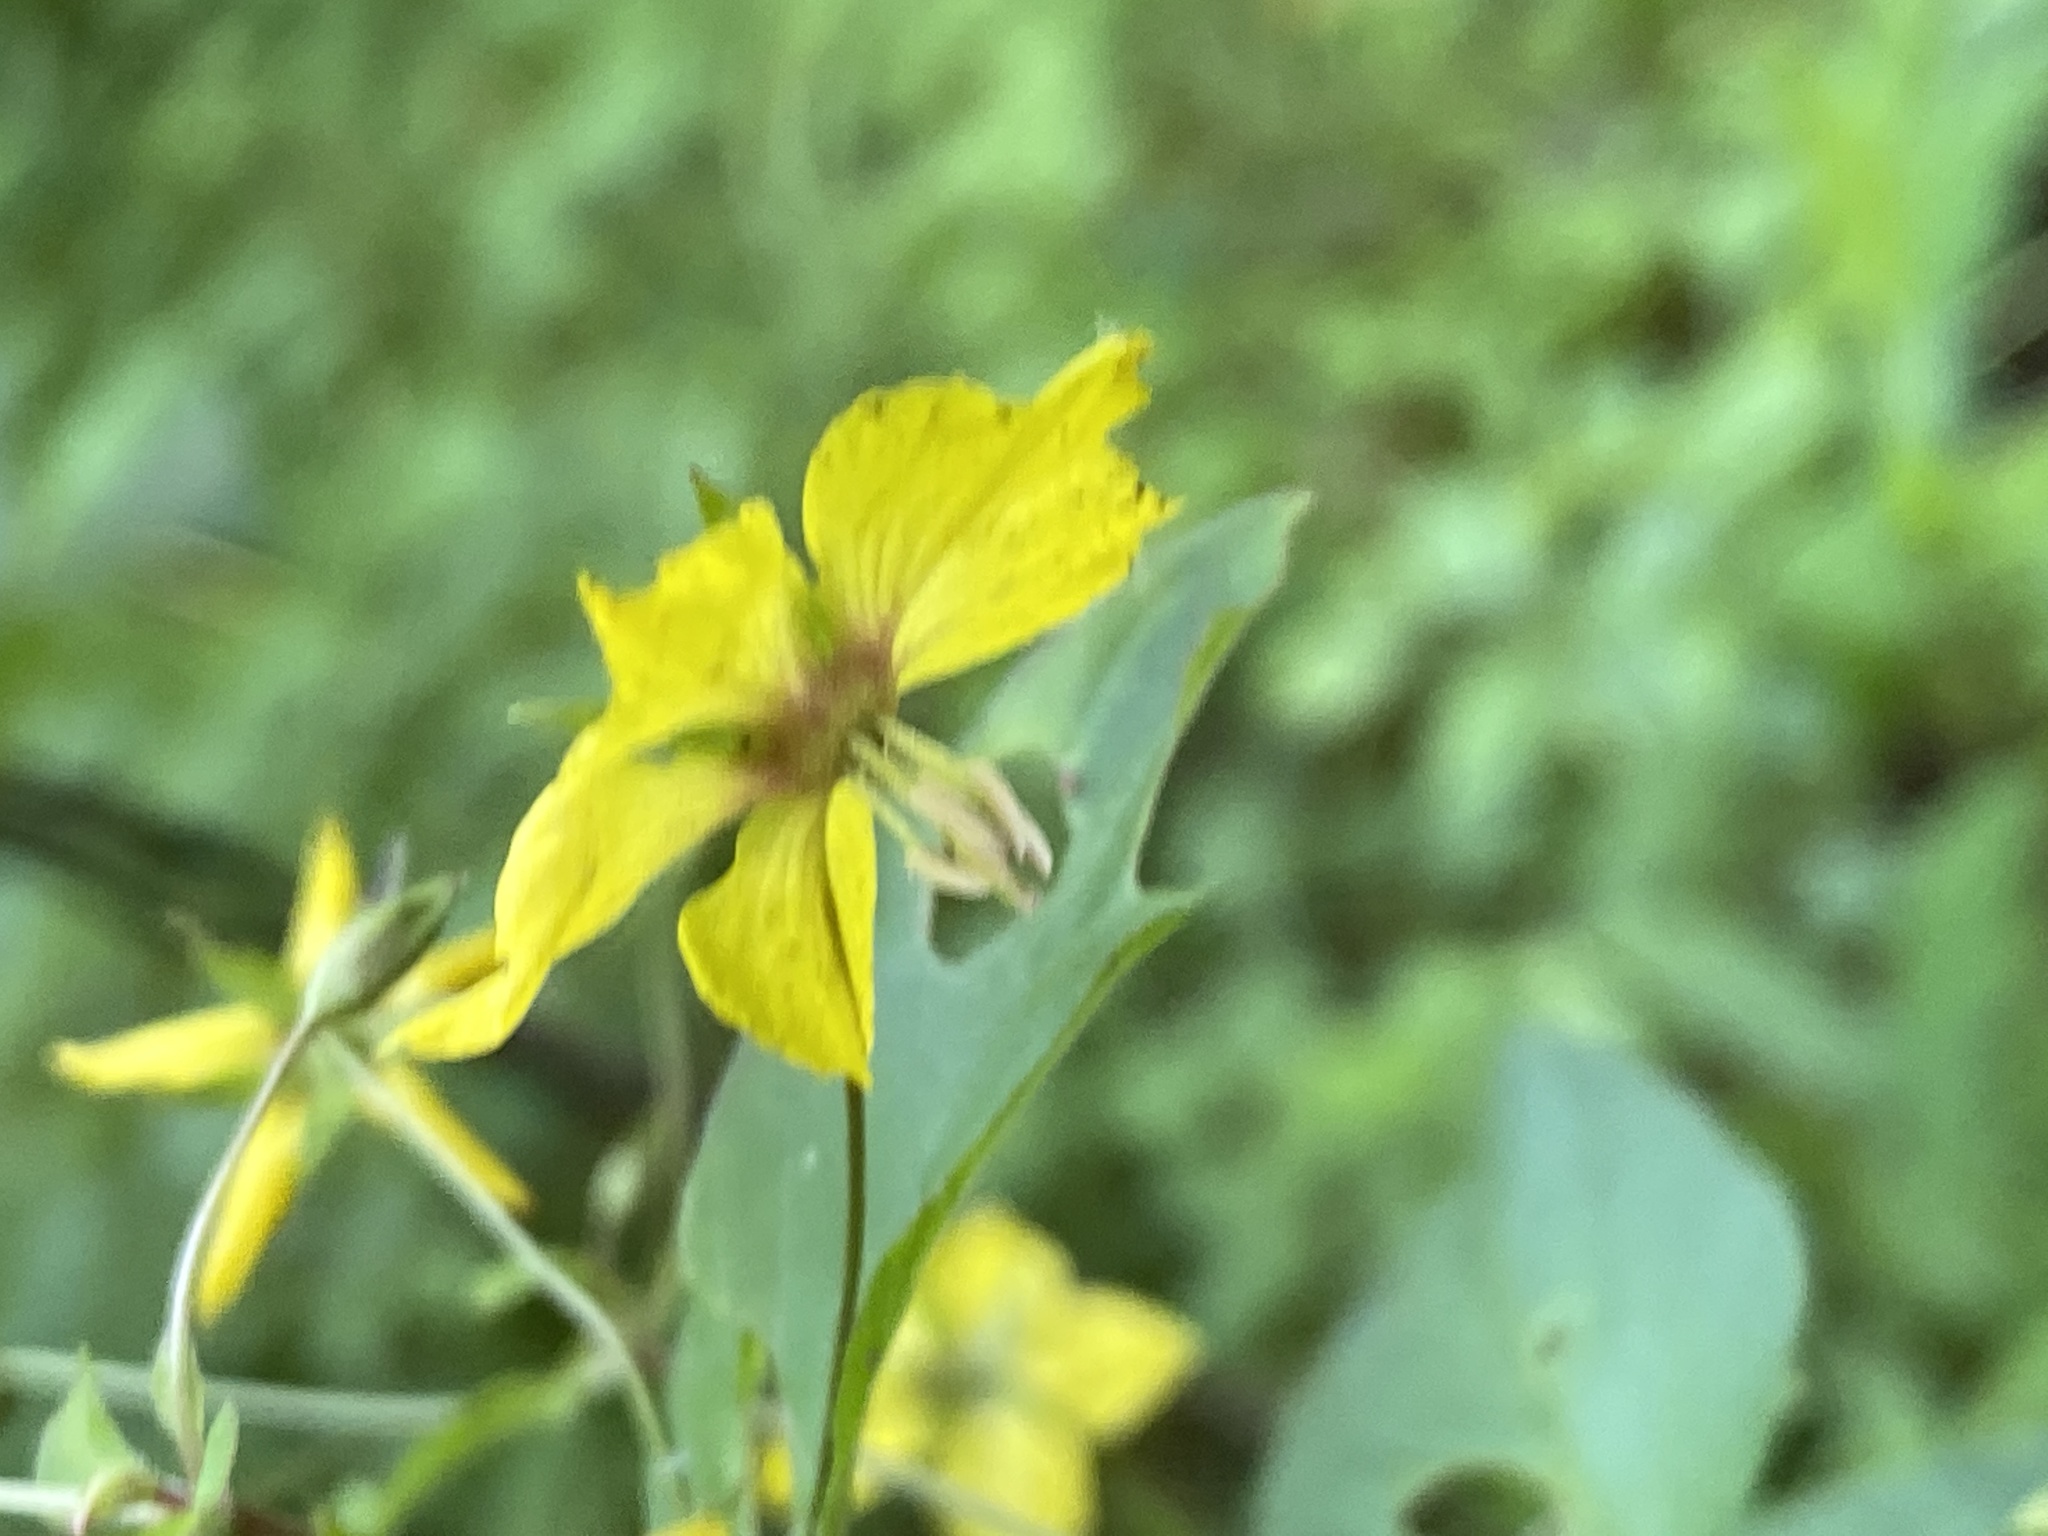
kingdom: Plantae
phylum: Tracheophyta
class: Magnoliopsida
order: Ericales
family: Primulaceae
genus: Lysimachia
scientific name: Lysimachia ciliata
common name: Fringed loosestrife
